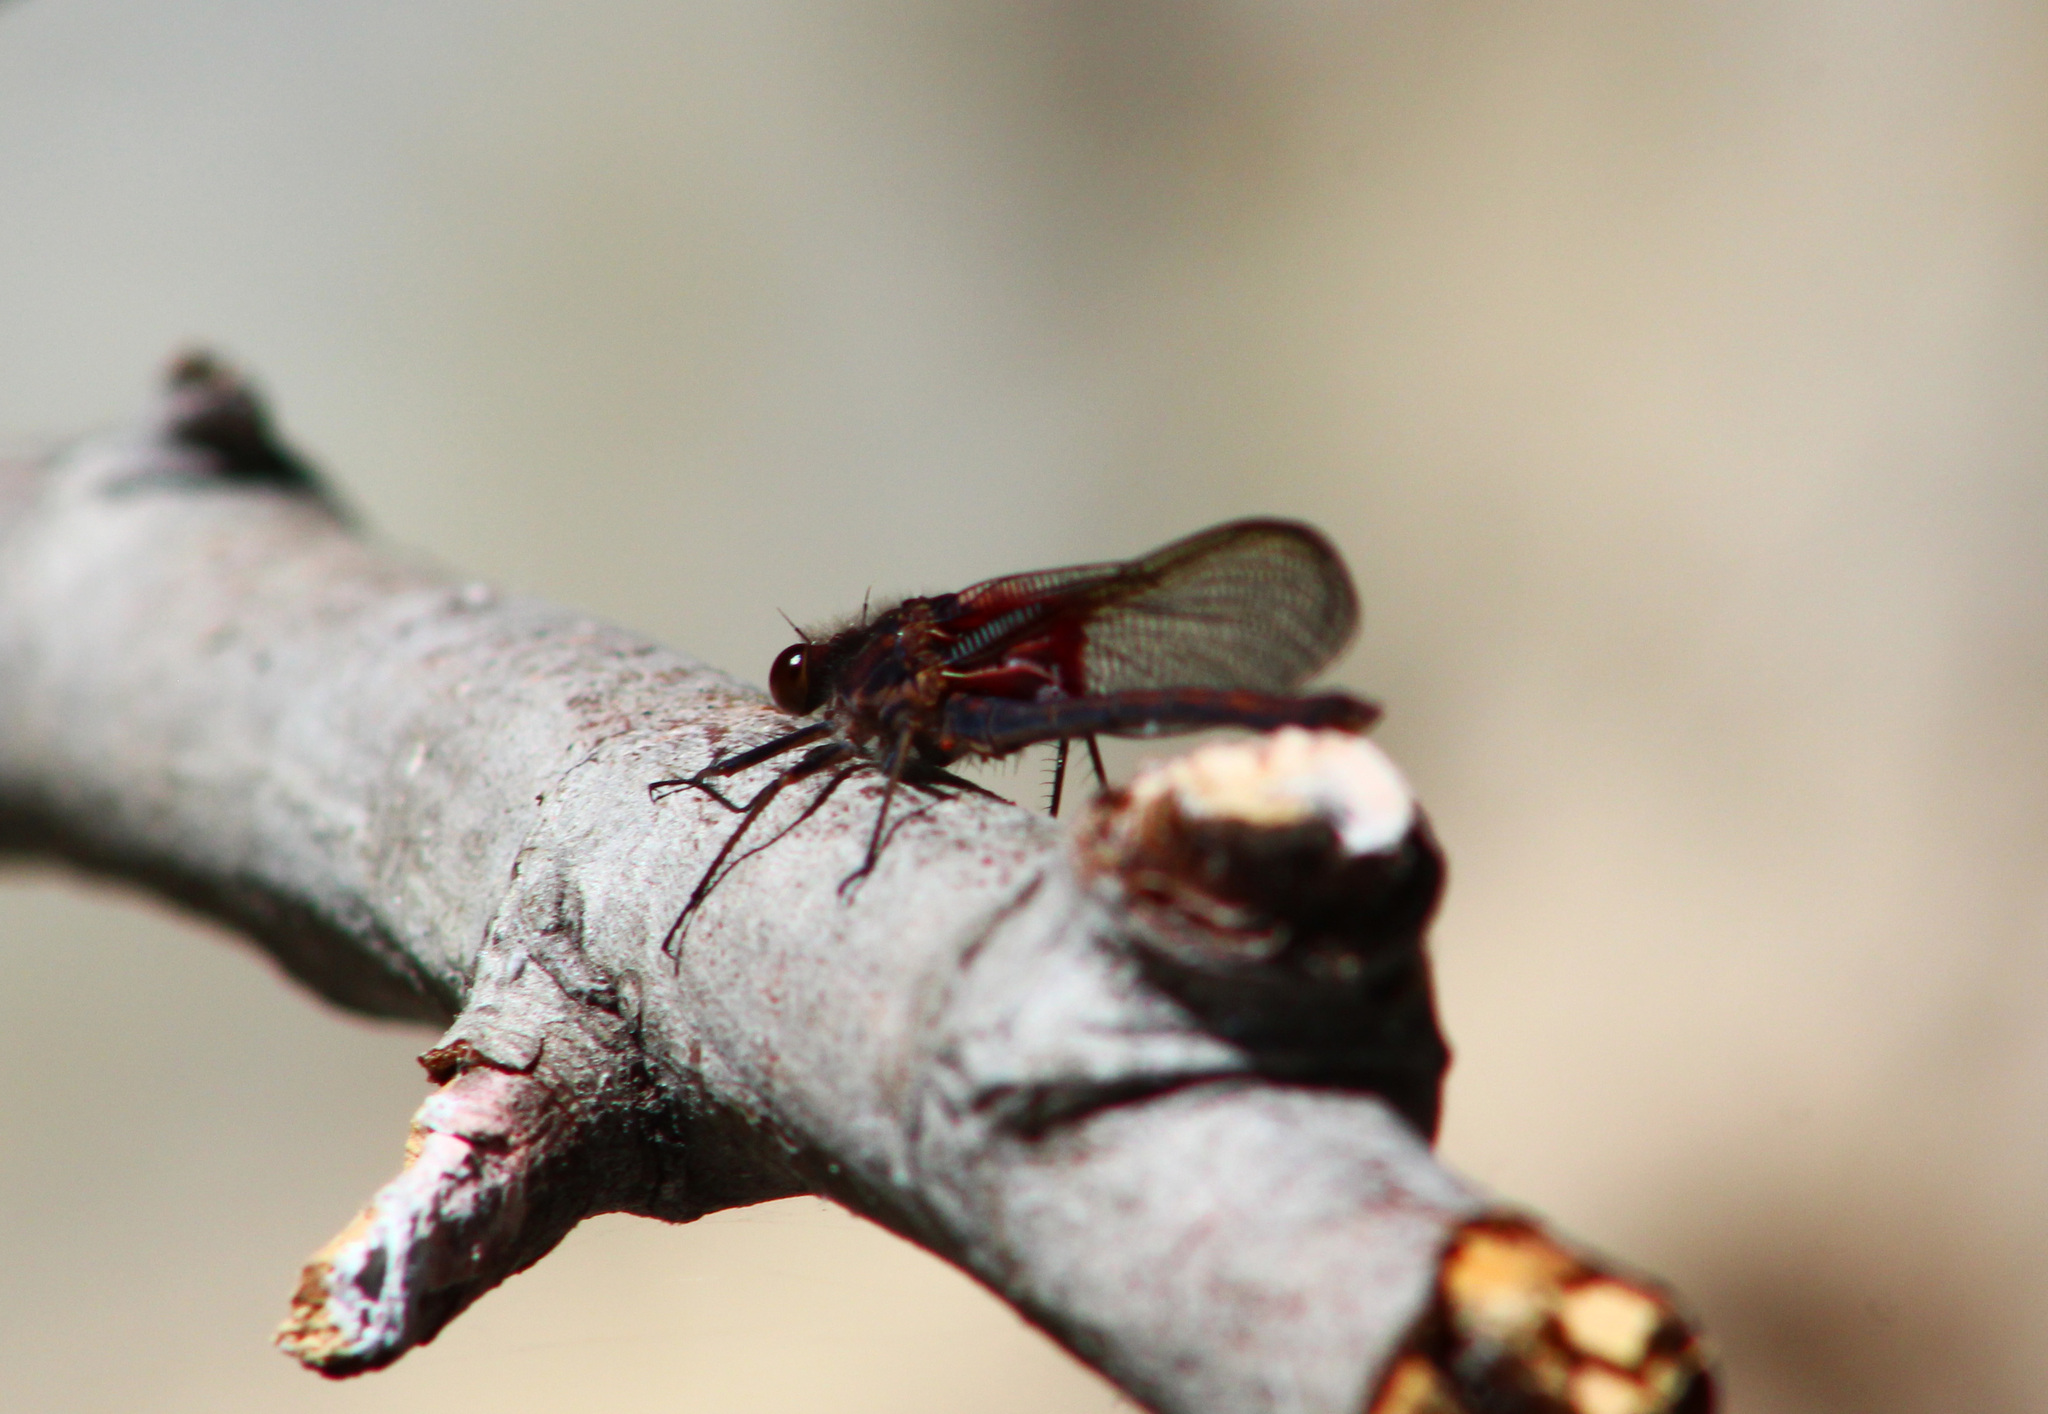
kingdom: Animalia
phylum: Arthropoda
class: Insecta
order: Odonata
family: Calopterygidae
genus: Hetaerina
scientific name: Hetaerina americana
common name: American rubyspot
